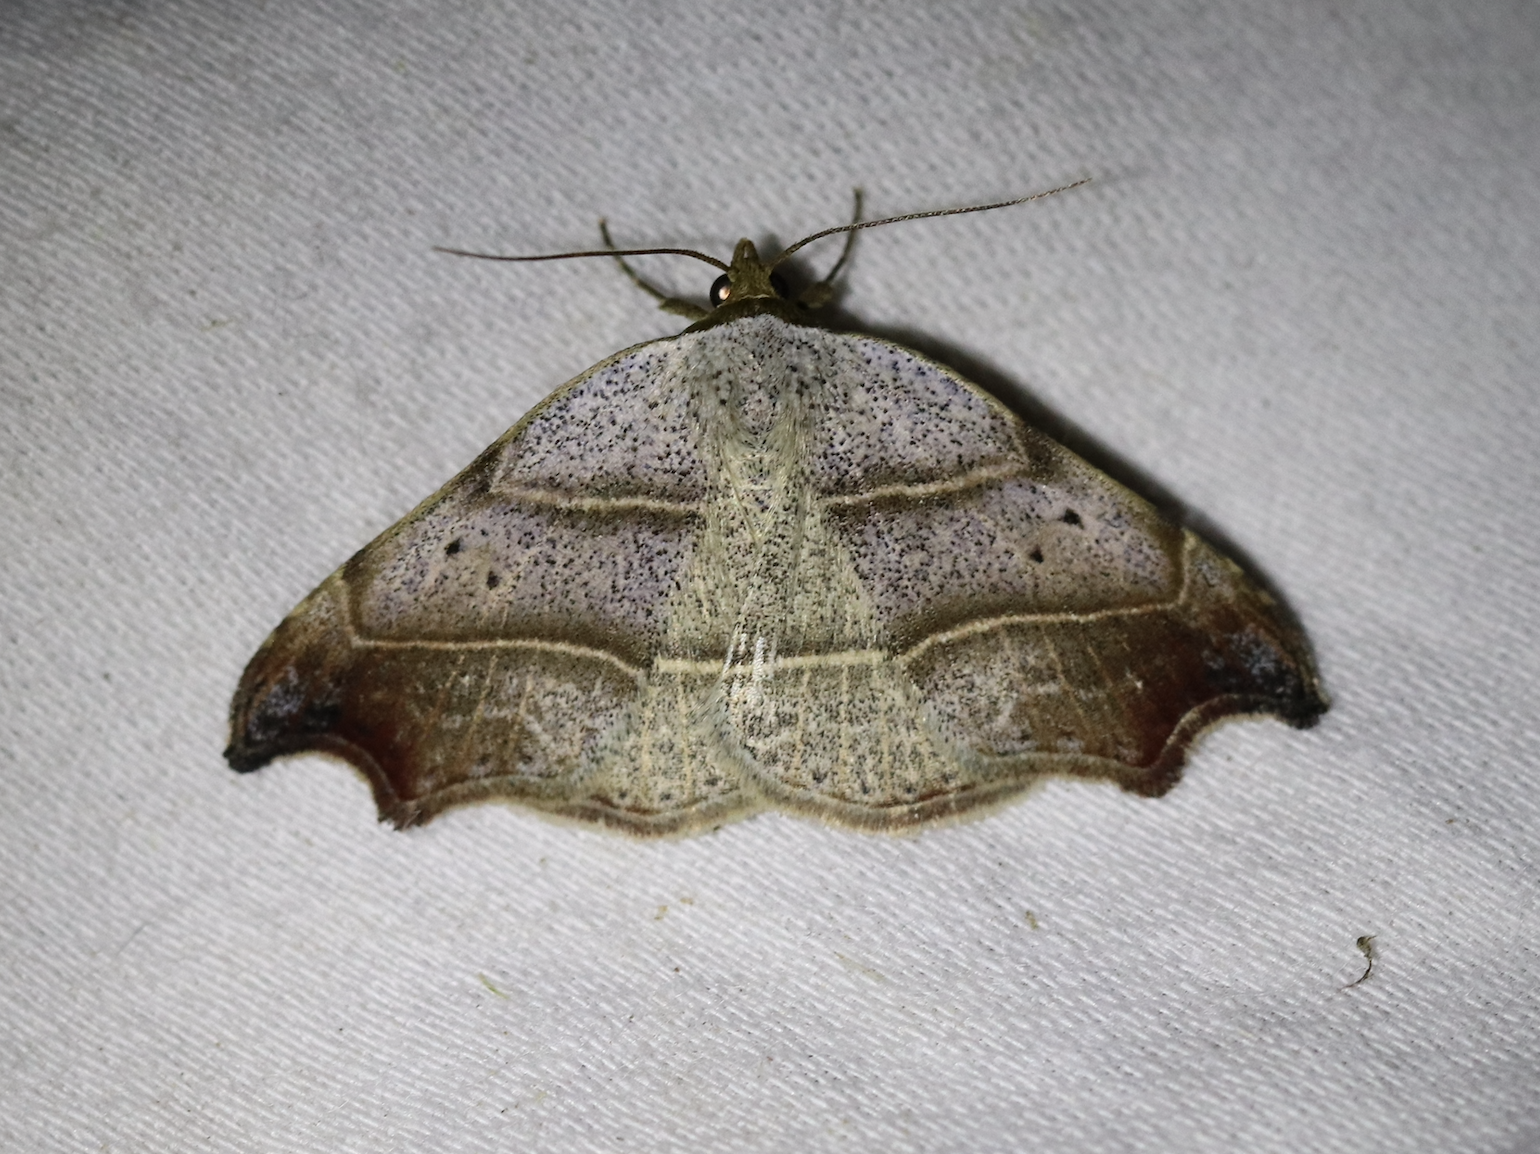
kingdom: Animalia
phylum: Arthropoda
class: Insecta
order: Lepidoptera
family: Erebidae
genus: Laspeyria
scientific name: Laspeyria flexula
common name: Beautiful hook-tip
